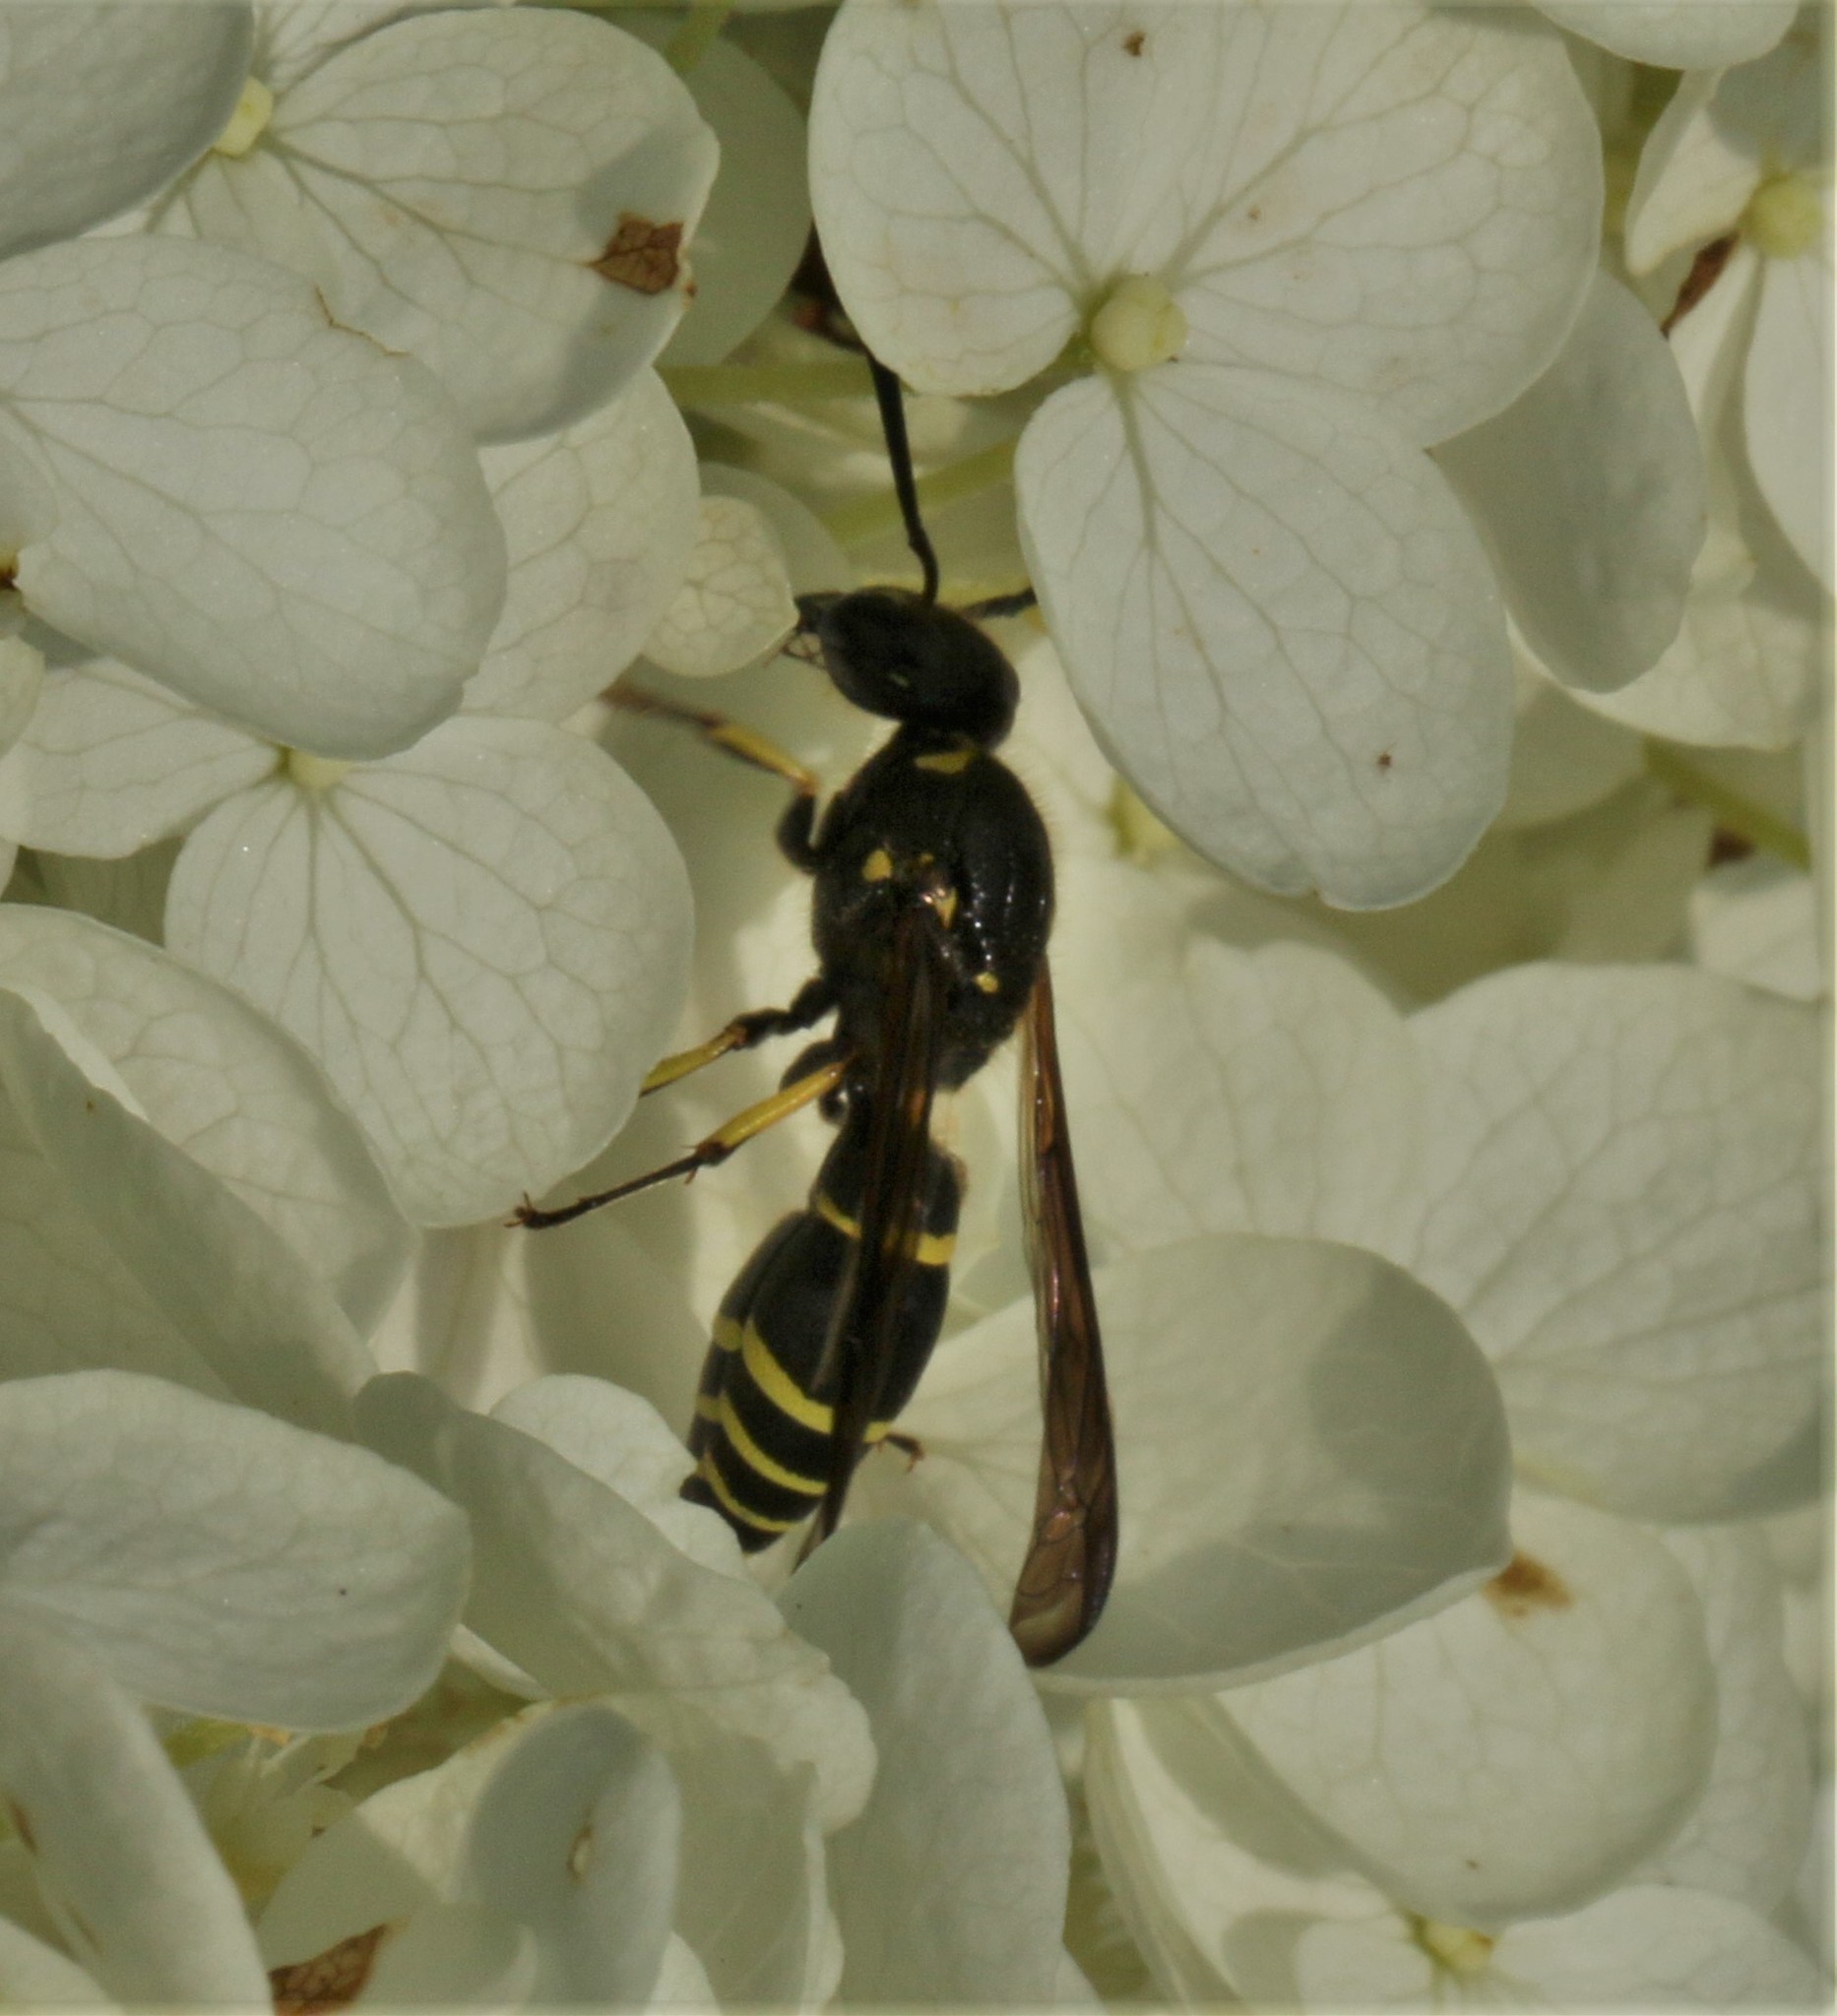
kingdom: Animalia
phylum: Arthropoda
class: Insecta
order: Hymenoptera
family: Vespidae
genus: Ancistrocerus
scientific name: Ancistrocerus
